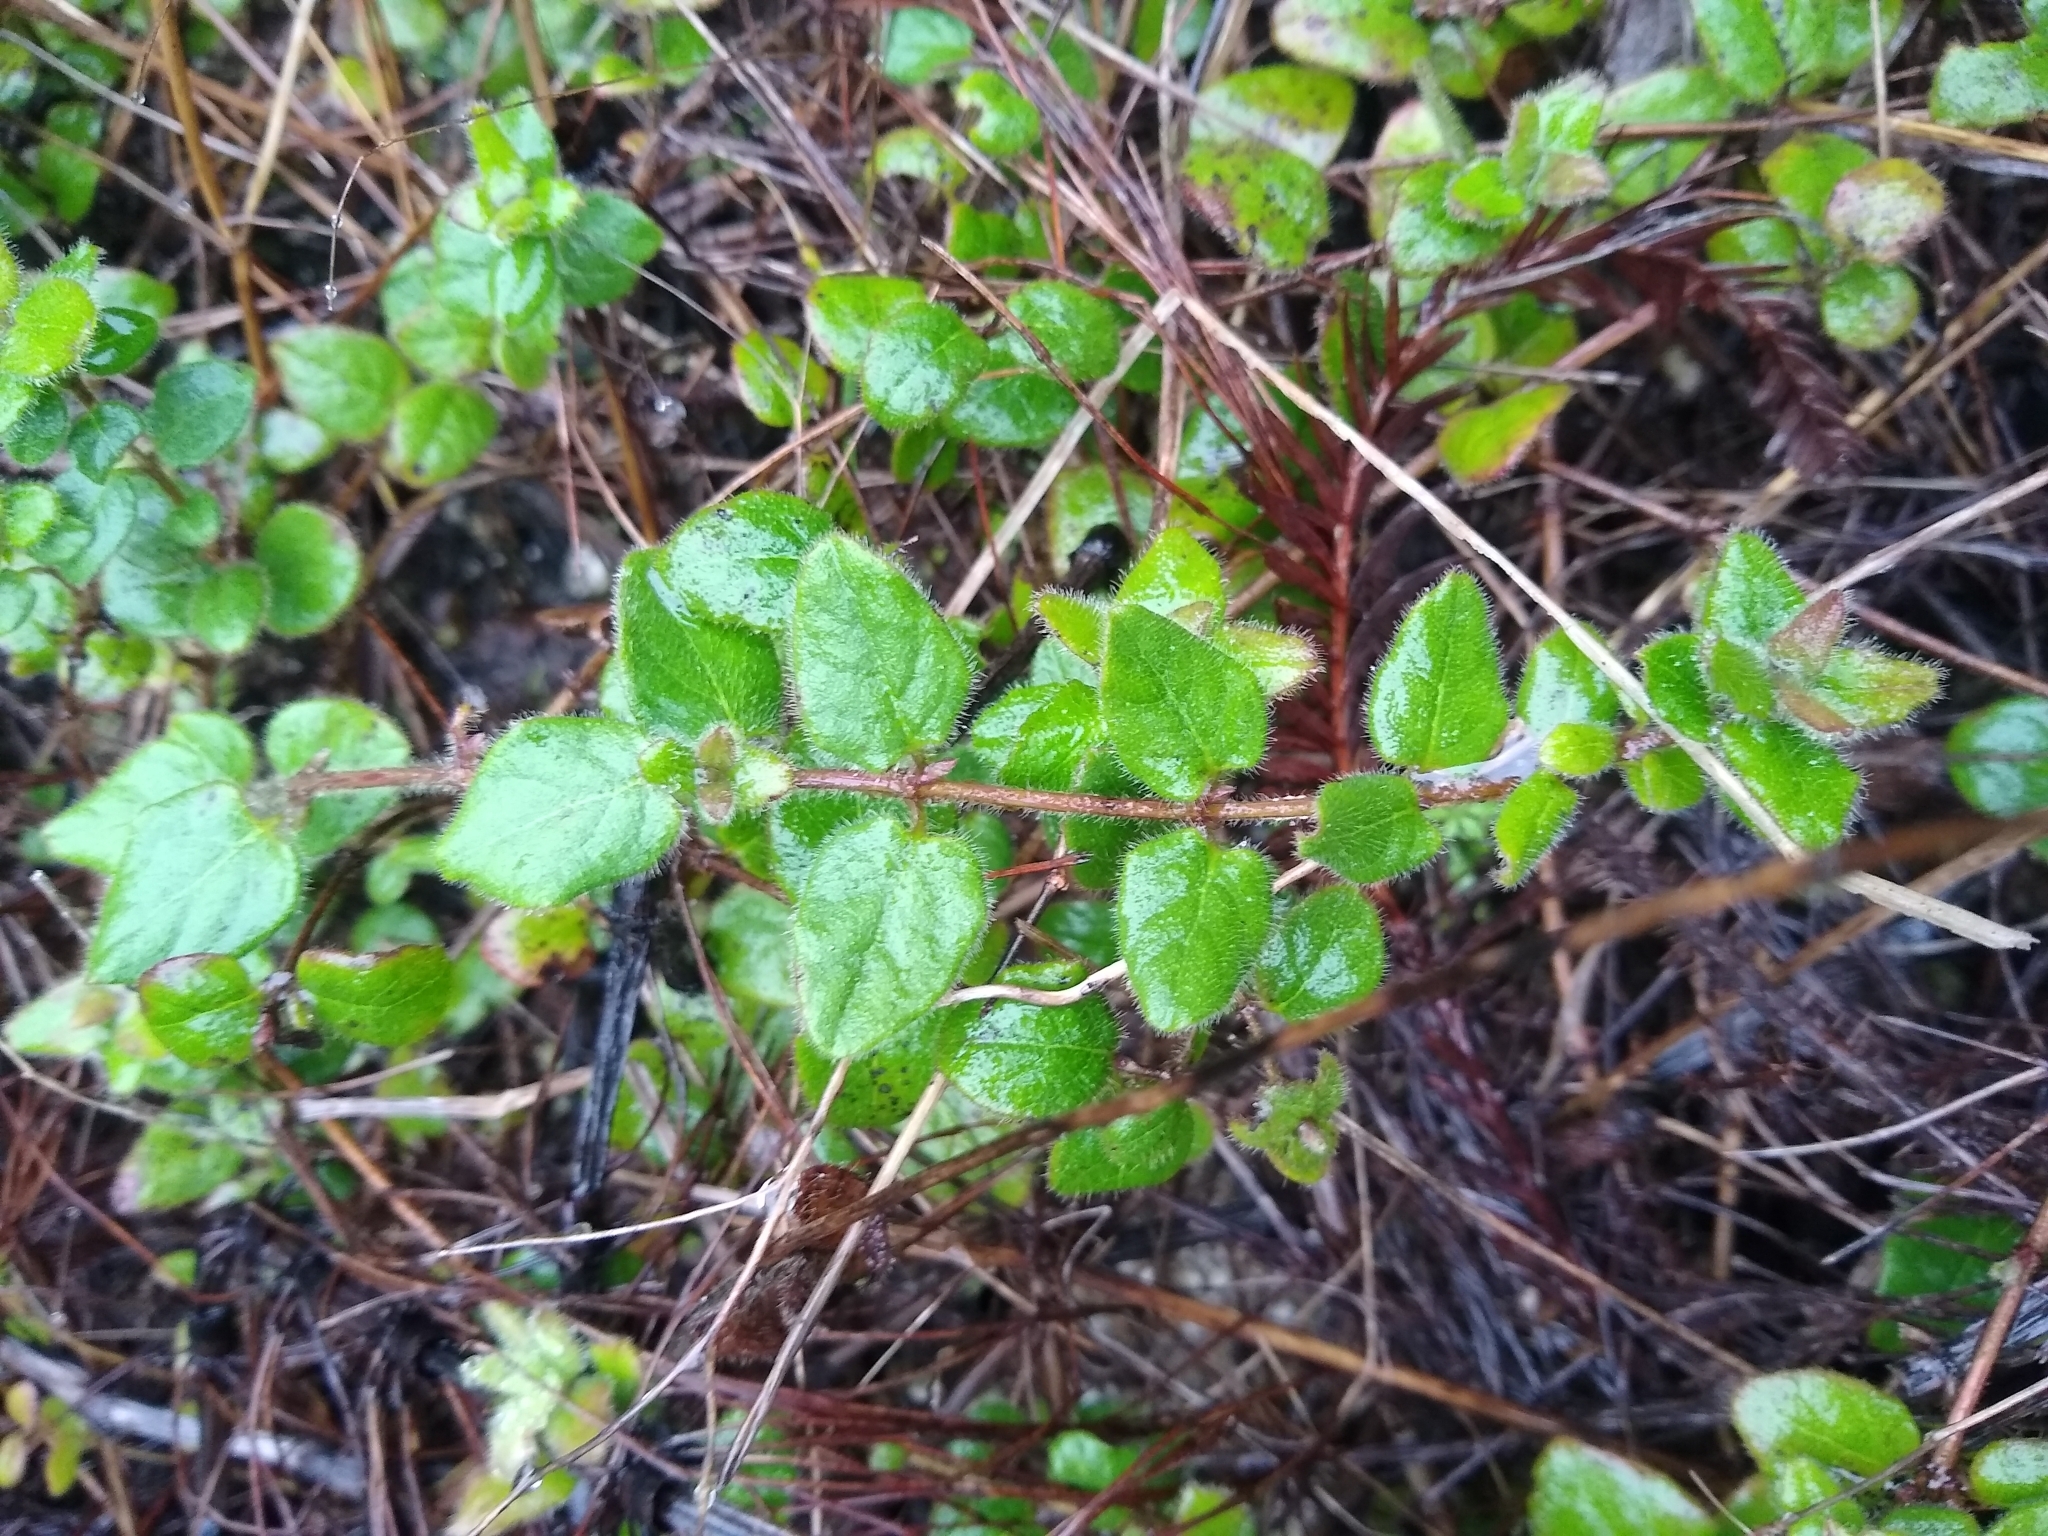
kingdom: Plantae
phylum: Tracheophyta
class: Magnoliopsida
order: Dipsacales
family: Caprifoliaceae
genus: Lonicera
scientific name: Lonicera hispidula
